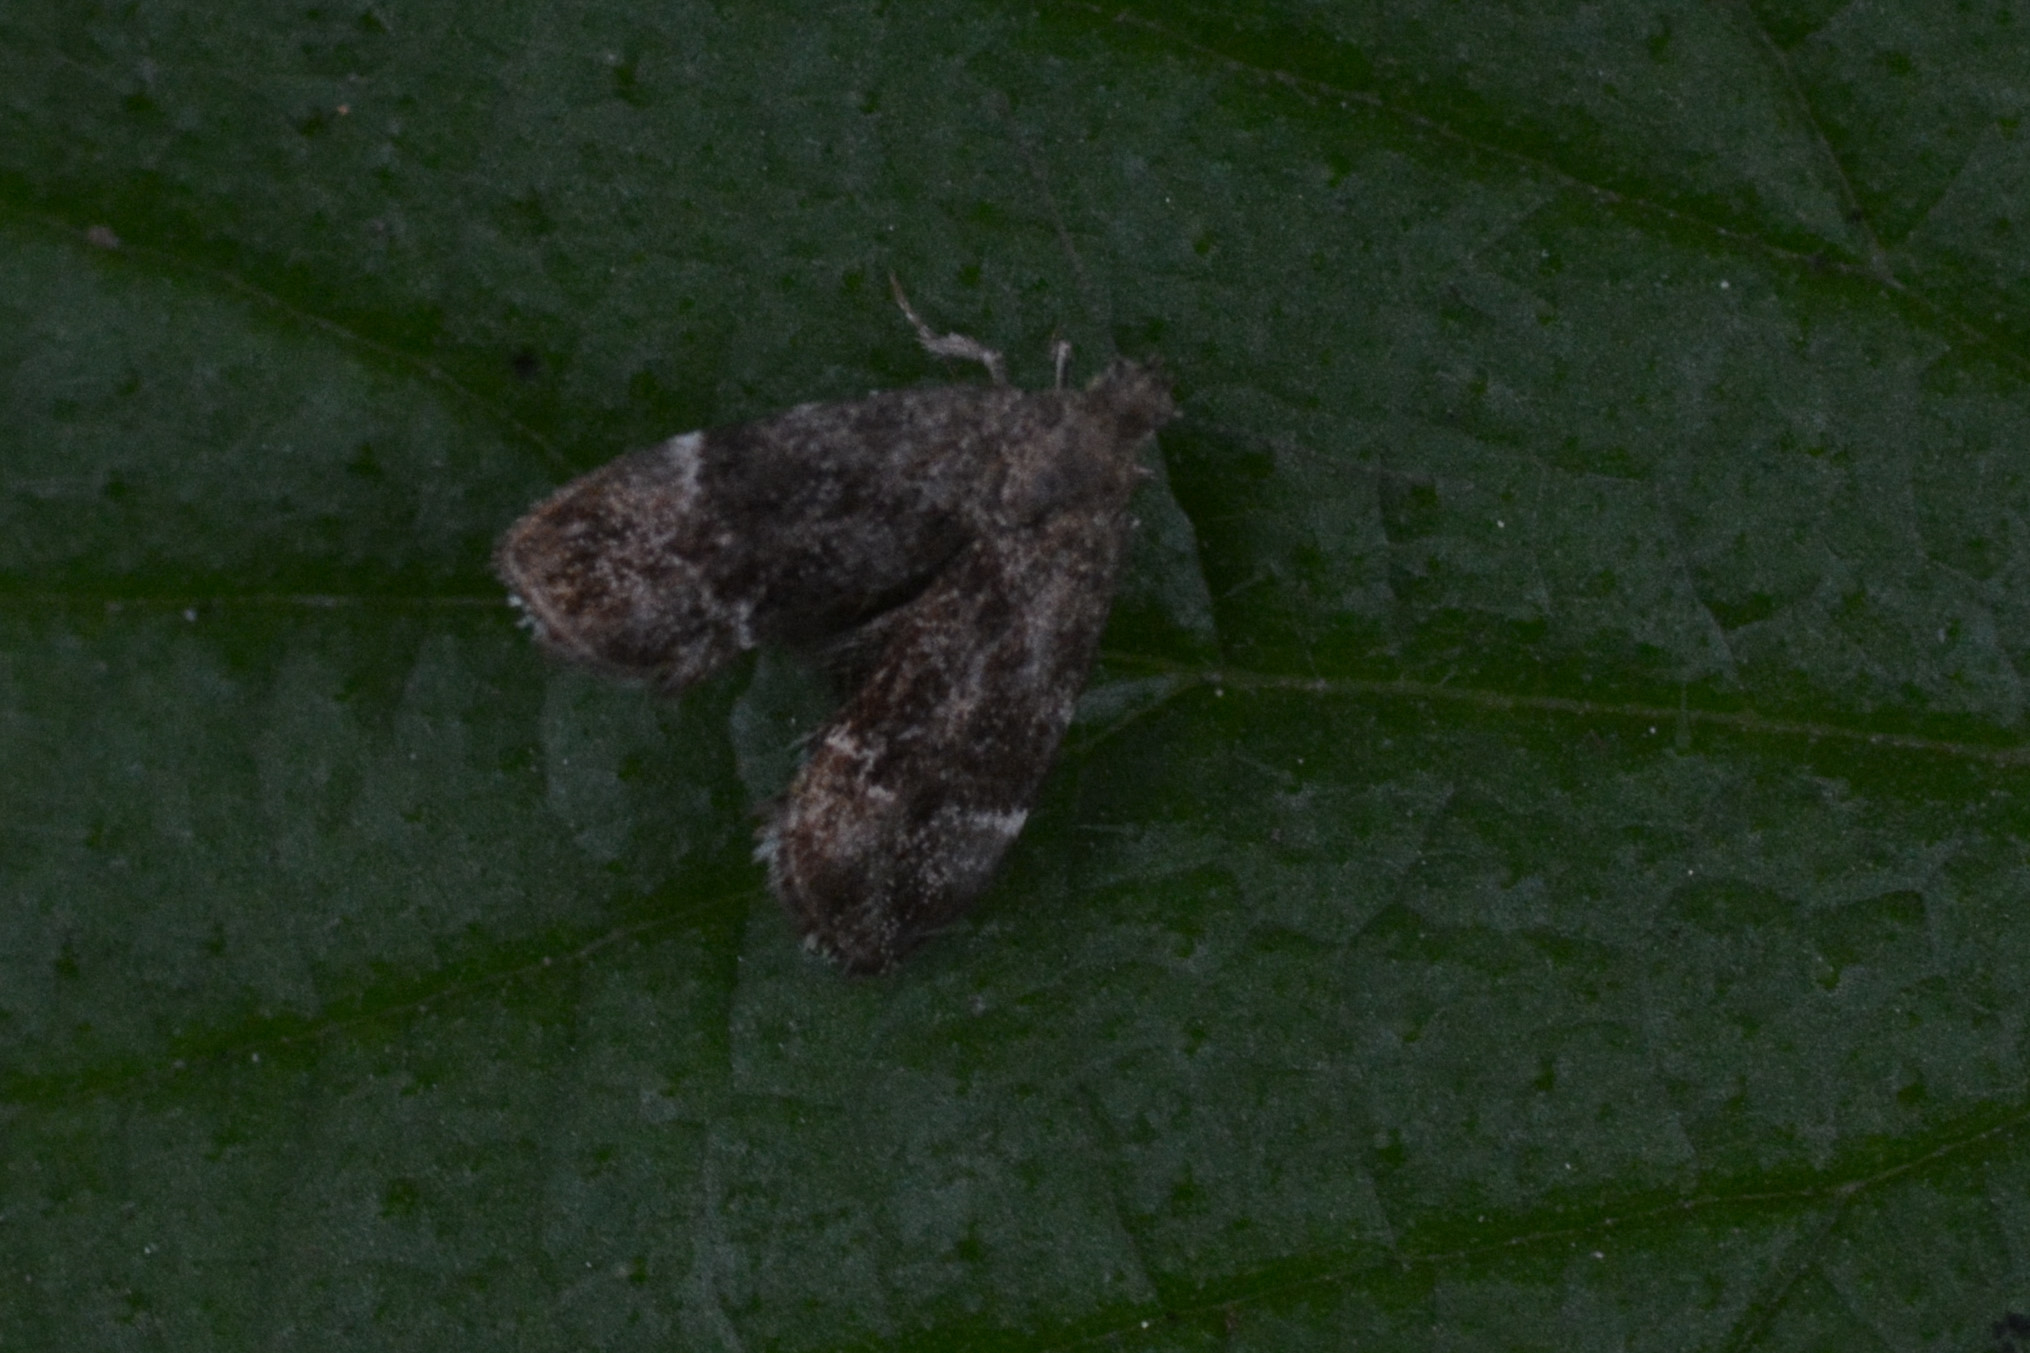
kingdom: Animalia
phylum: Arthropoda
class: Insecta
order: Lepidoptera
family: Choreutidae
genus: Anthophila
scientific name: Anthophila fabriciana
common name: Nettle-tap
